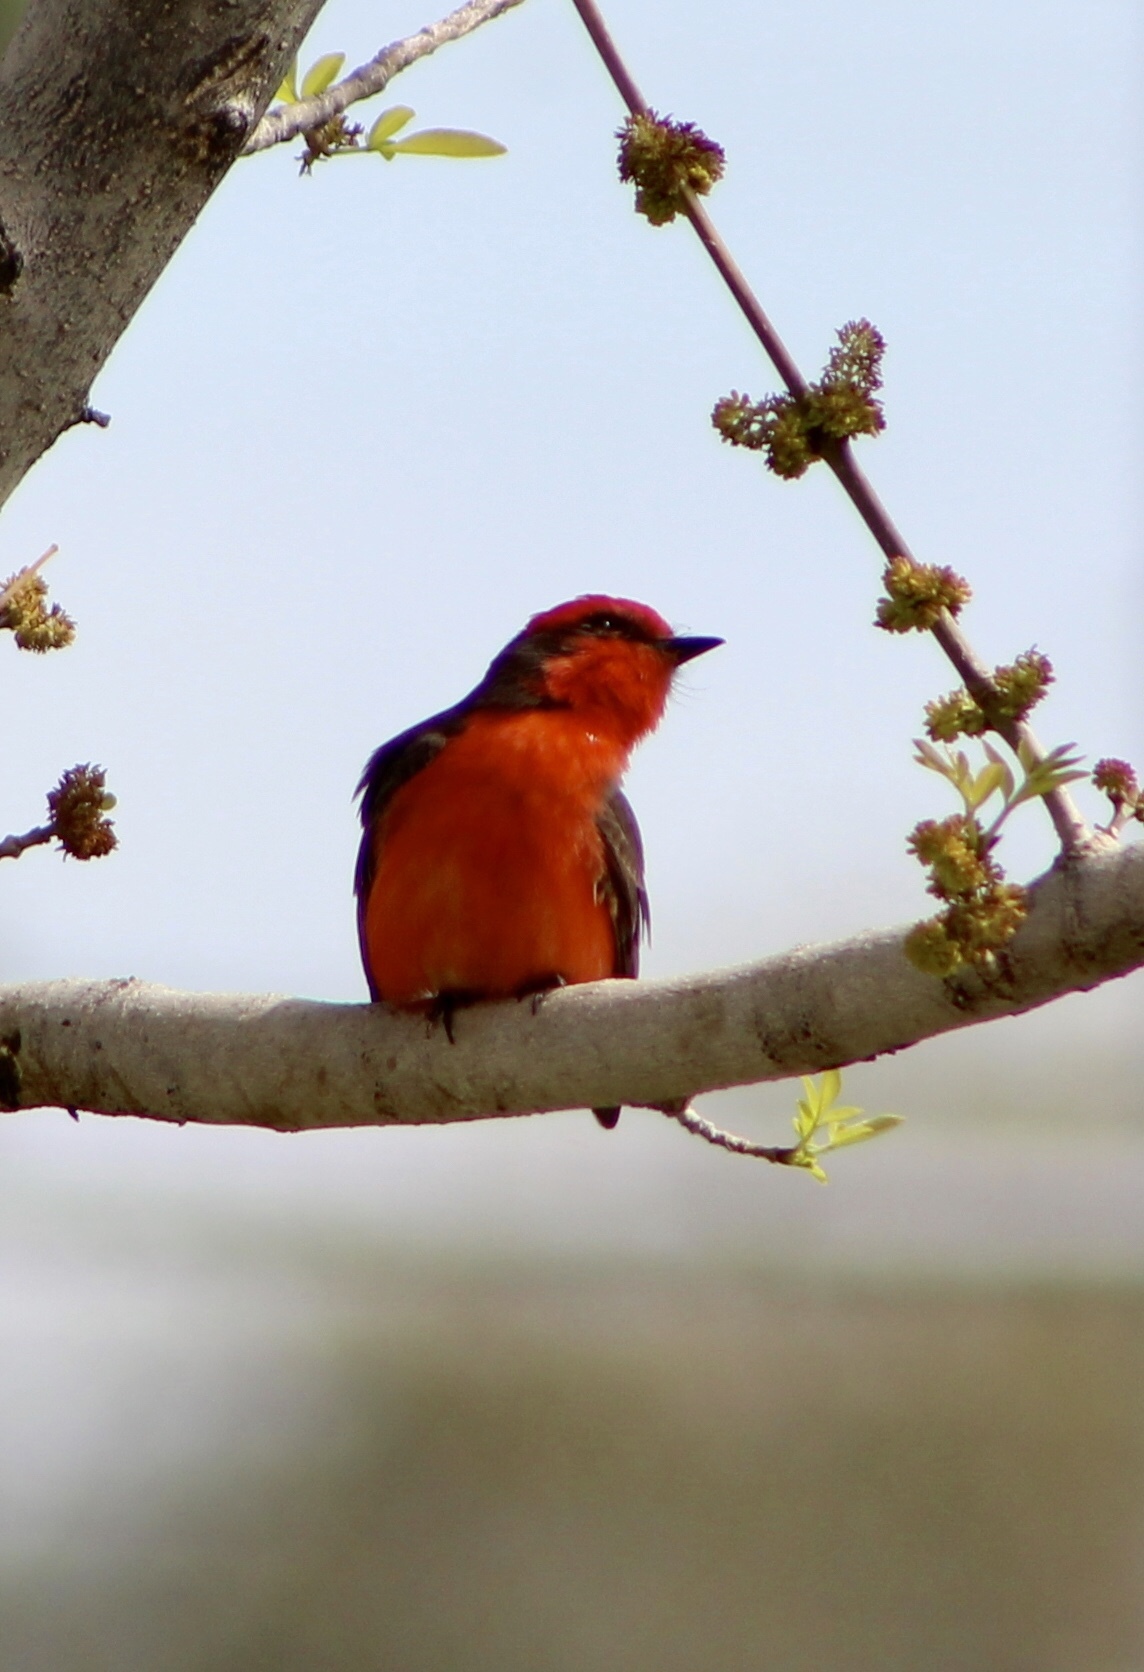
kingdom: Animalia
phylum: Chordata
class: Aves
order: Passeriformes
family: Tyrannidae
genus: Pyrocephalus
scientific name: Pyrocephalus rubinus
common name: Vermilion flycatcher
